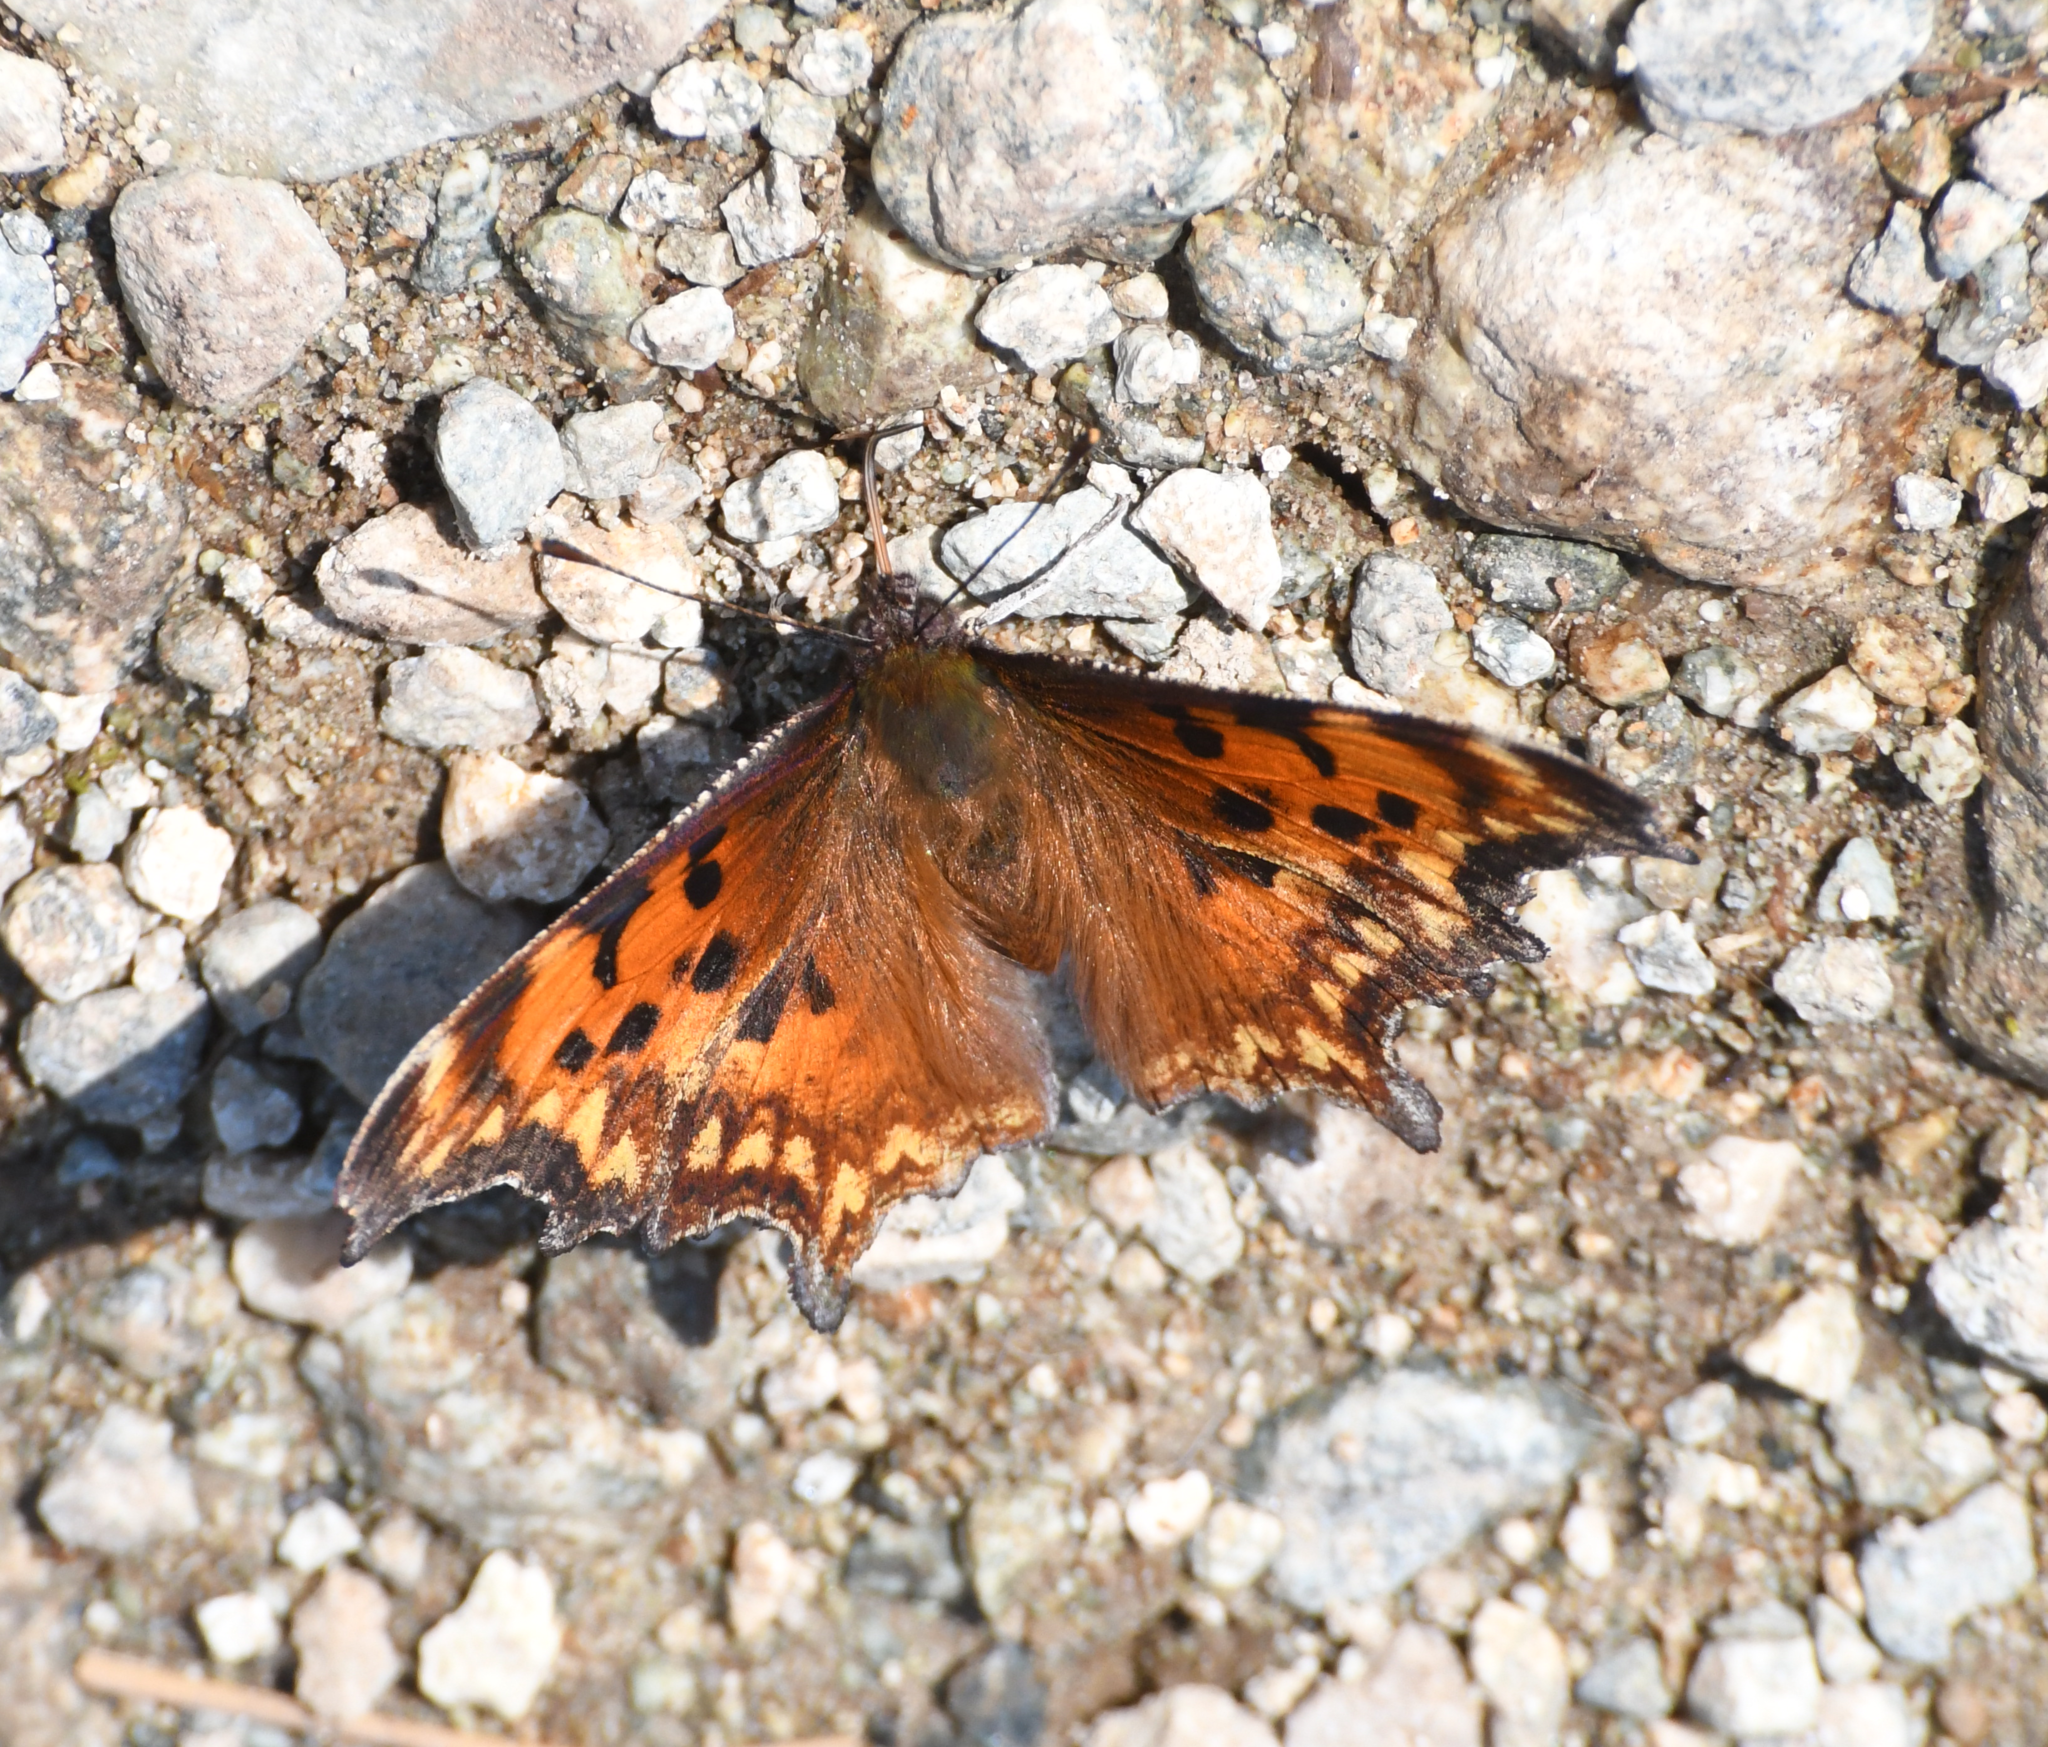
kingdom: Animalia
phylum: Arthropoda
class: Insecta
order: Lepidoptera
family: Nymphalidae
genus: Polygonia
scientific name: Polygonia gracilis
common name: Hoary comma
